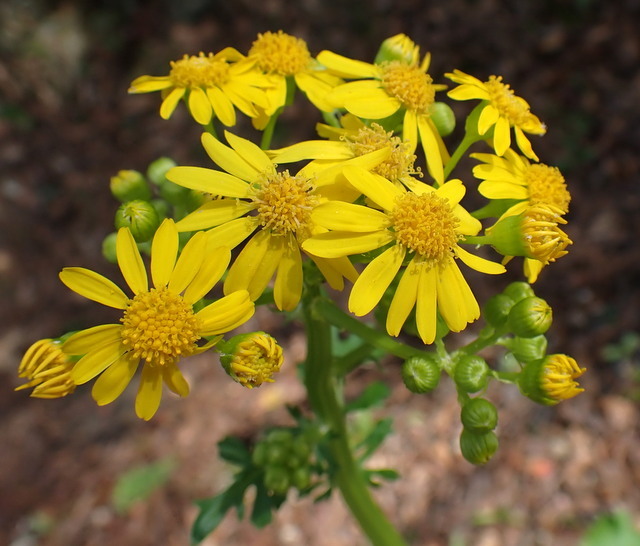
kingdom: Plantae
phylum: Tracheophyta
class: Magnoliopsida
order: Asterales
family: Asteraceae
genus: Packera
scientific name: Packera glabella
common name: Butterweed
